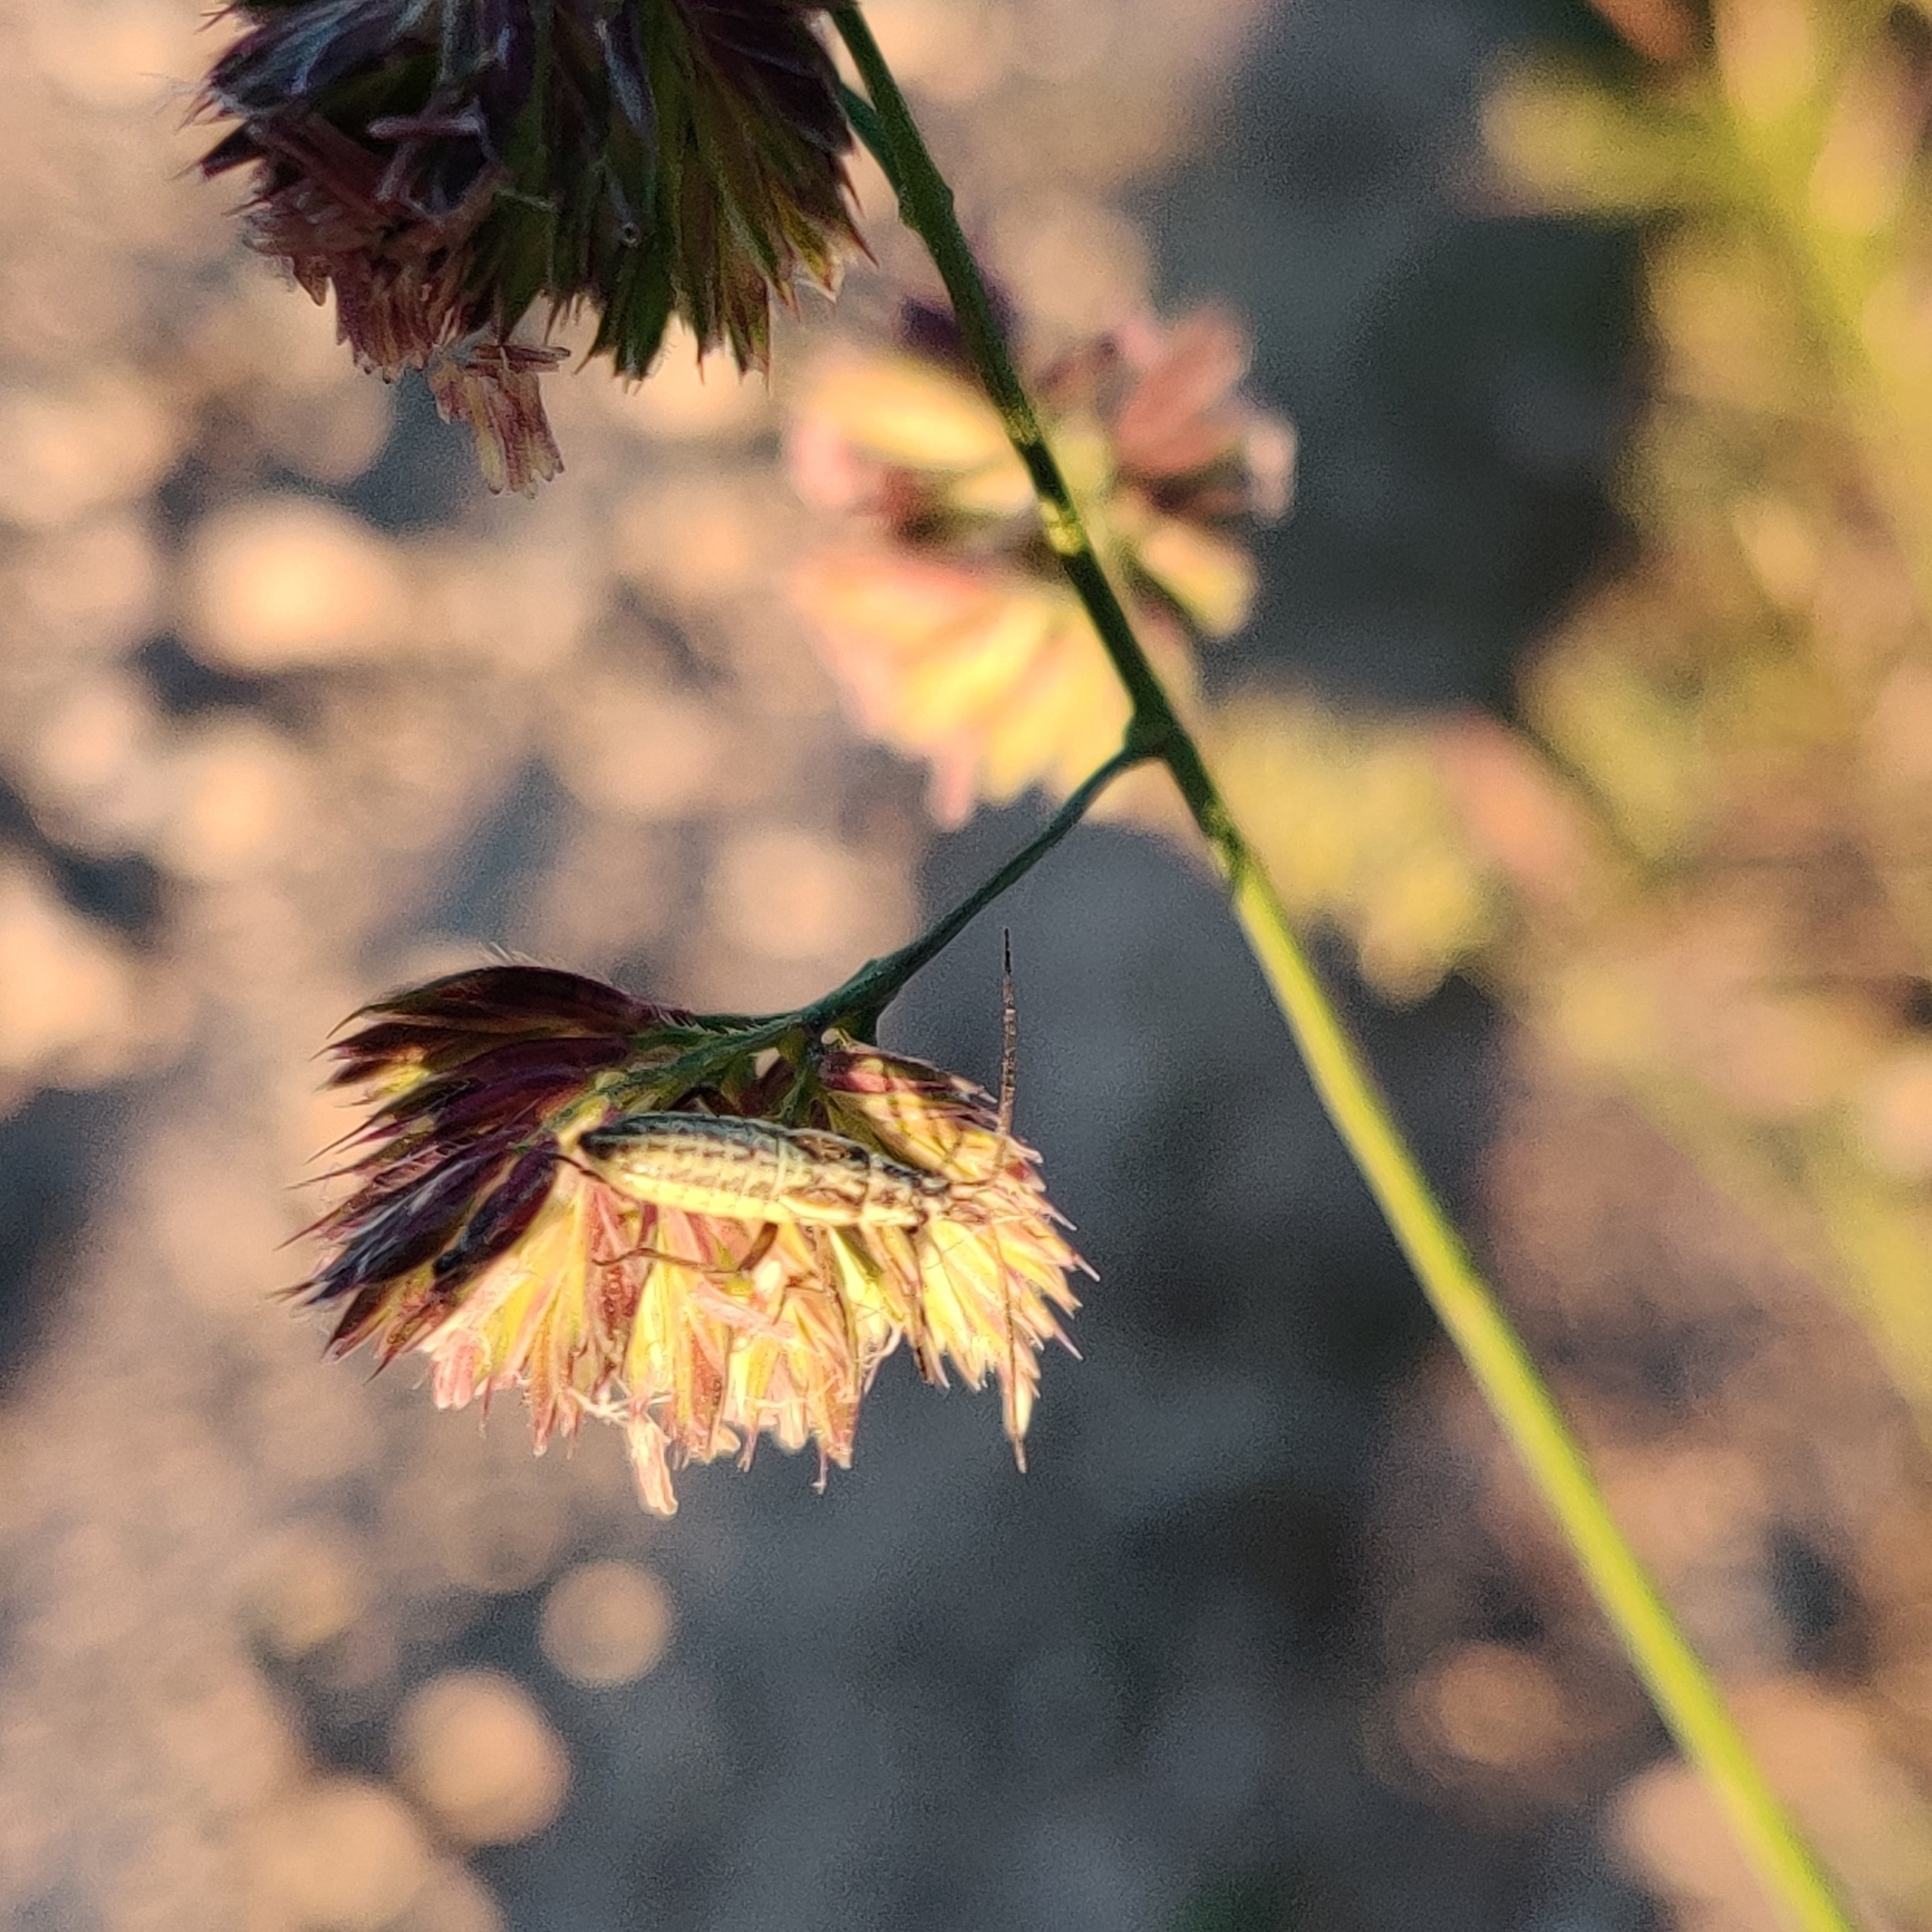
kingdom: Animalia
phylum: Arthropoda
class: Insecta
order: Hemiptera
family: Miridae
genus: Leptopterna
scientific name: Leptopterna dolabrata
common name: Meadow plant bug
